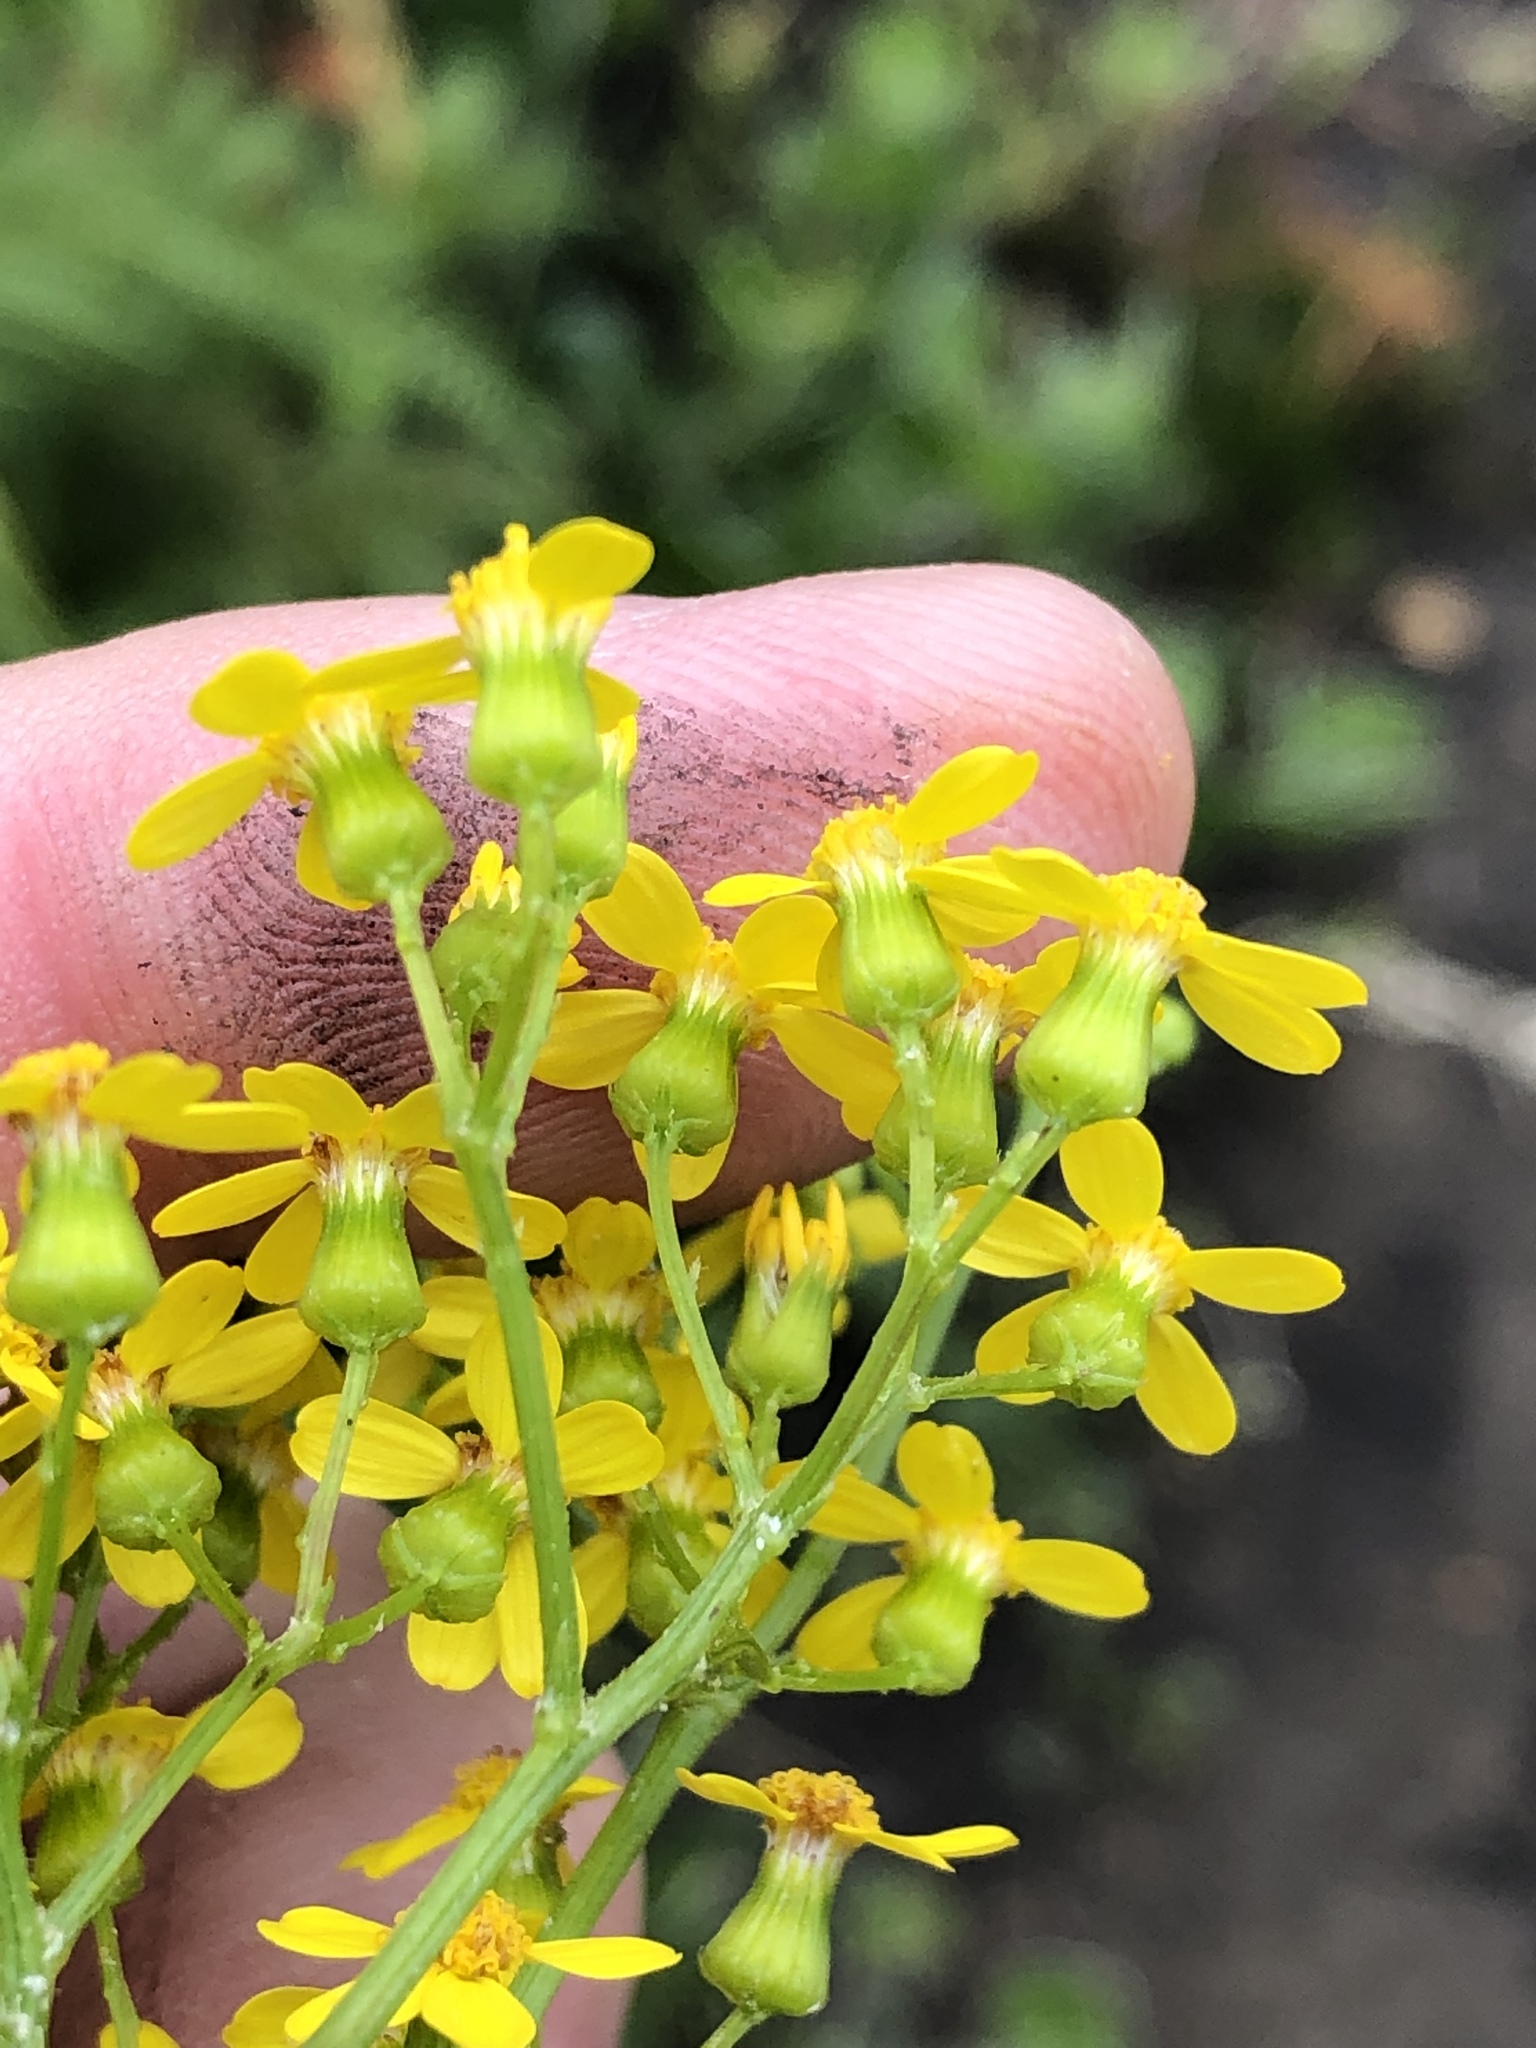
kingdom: Plantae
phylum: Tracheophyta
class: Magnoliopsida
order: Asterales
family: Asteraceae
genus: Senecio
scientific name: Senecio rigidus
